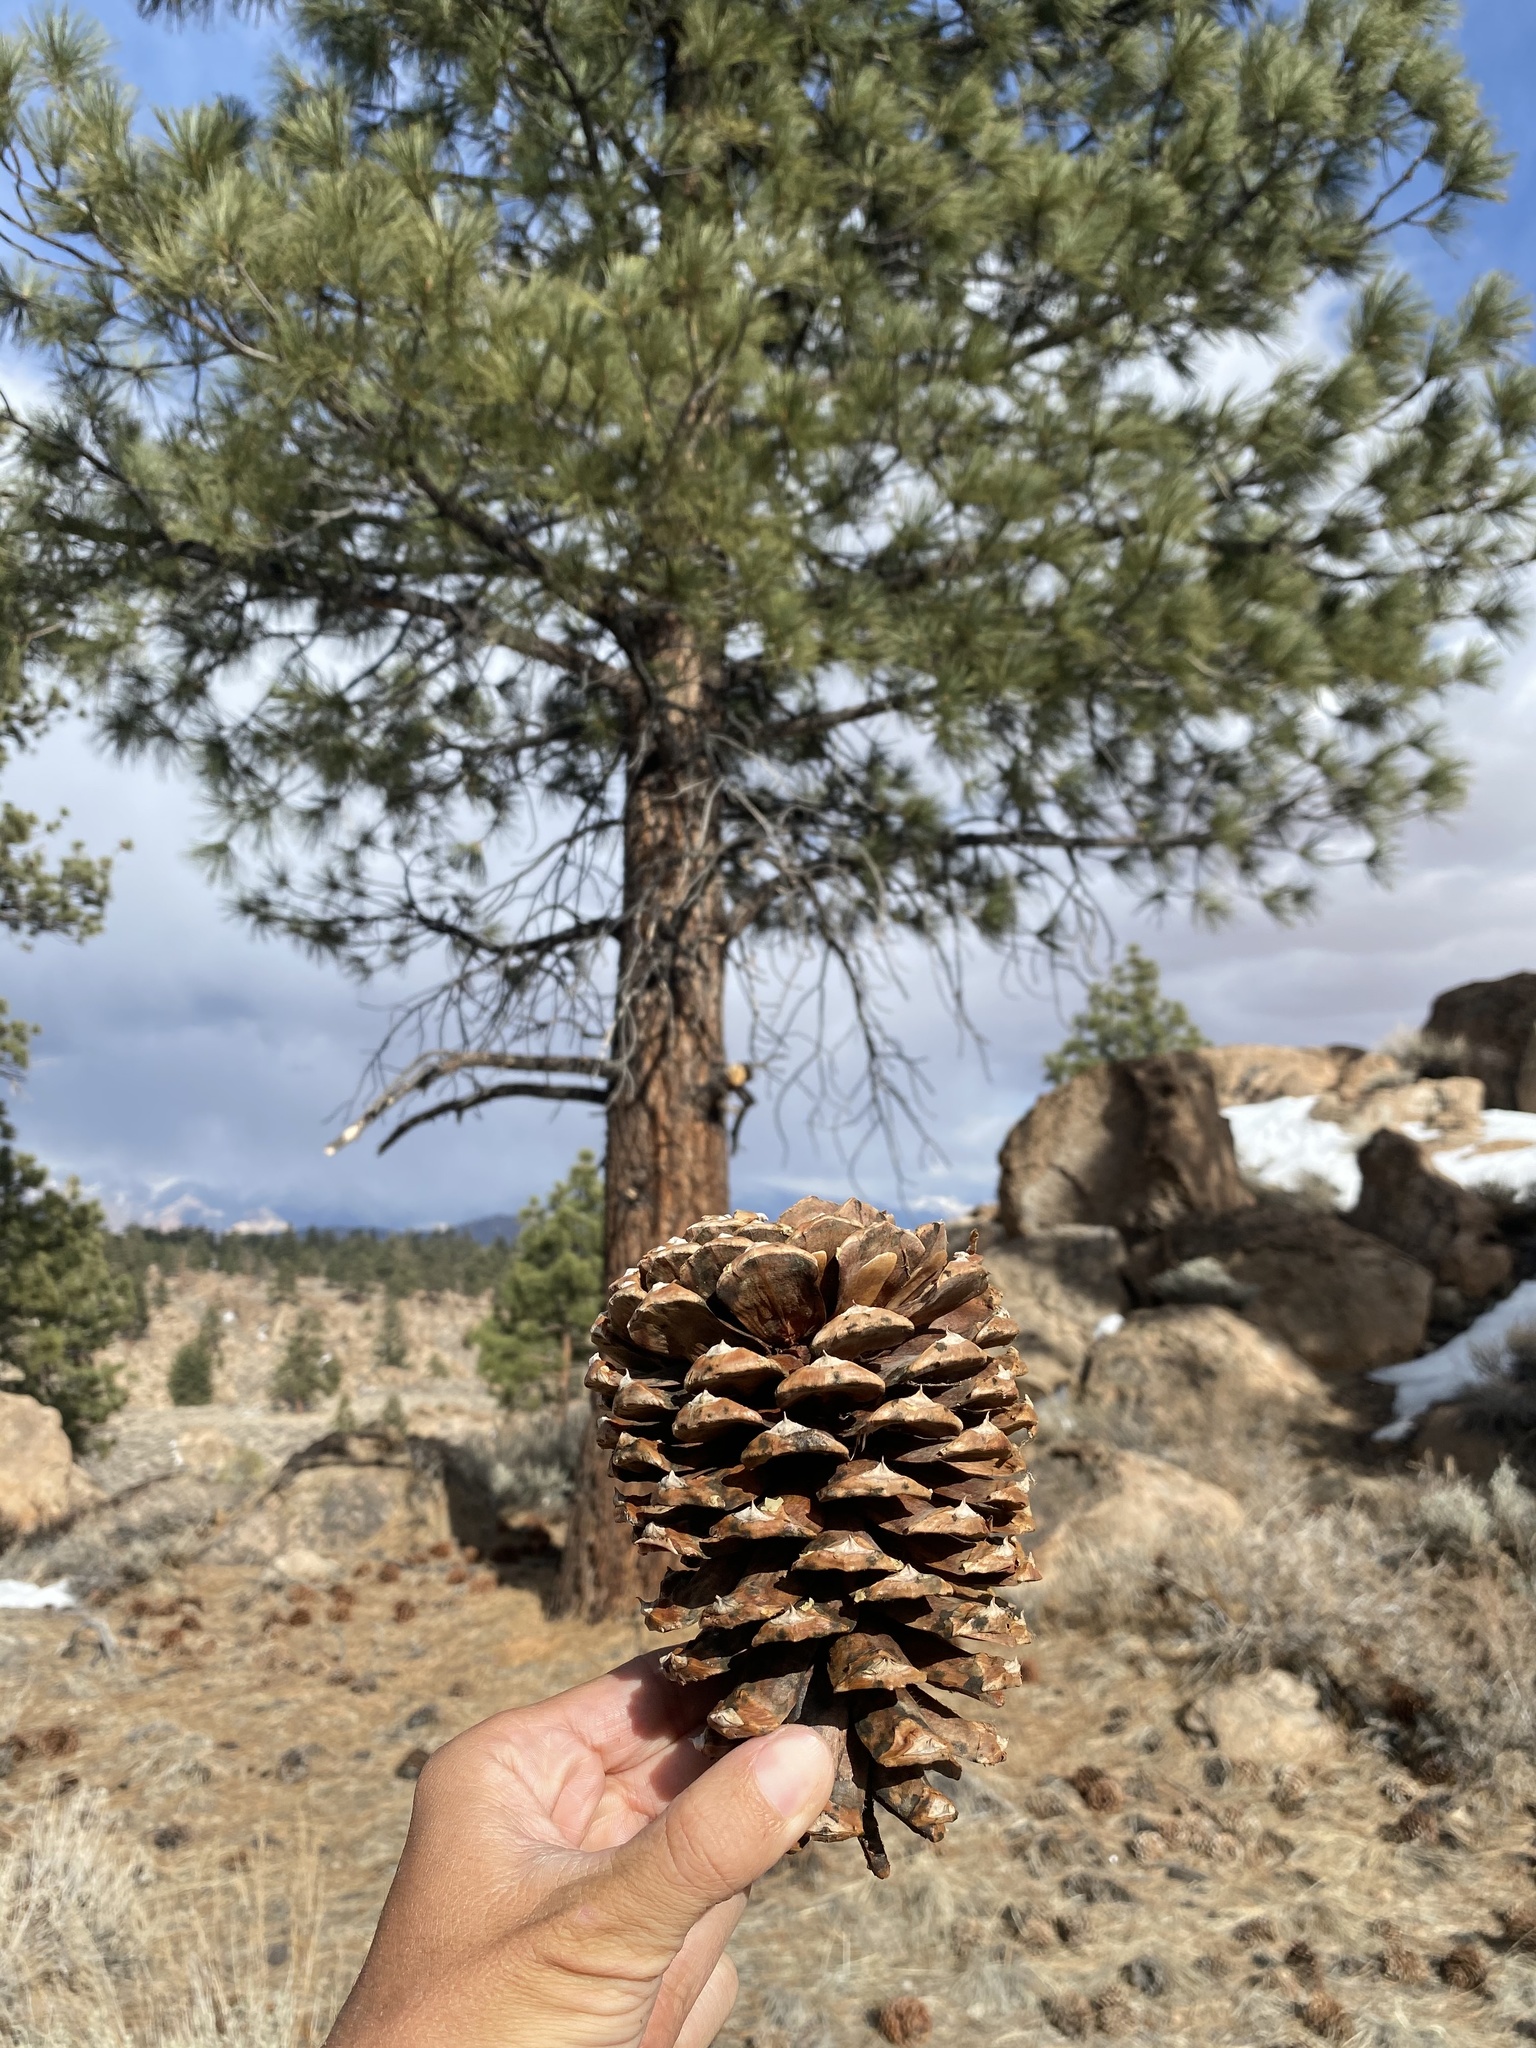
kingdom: Plantae
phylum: Tracheophyta
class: Pinopsida
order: Pinales
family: Pinaceae
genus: Pinus
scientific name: Pinus jeffreyi
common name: Jeffrey pine
